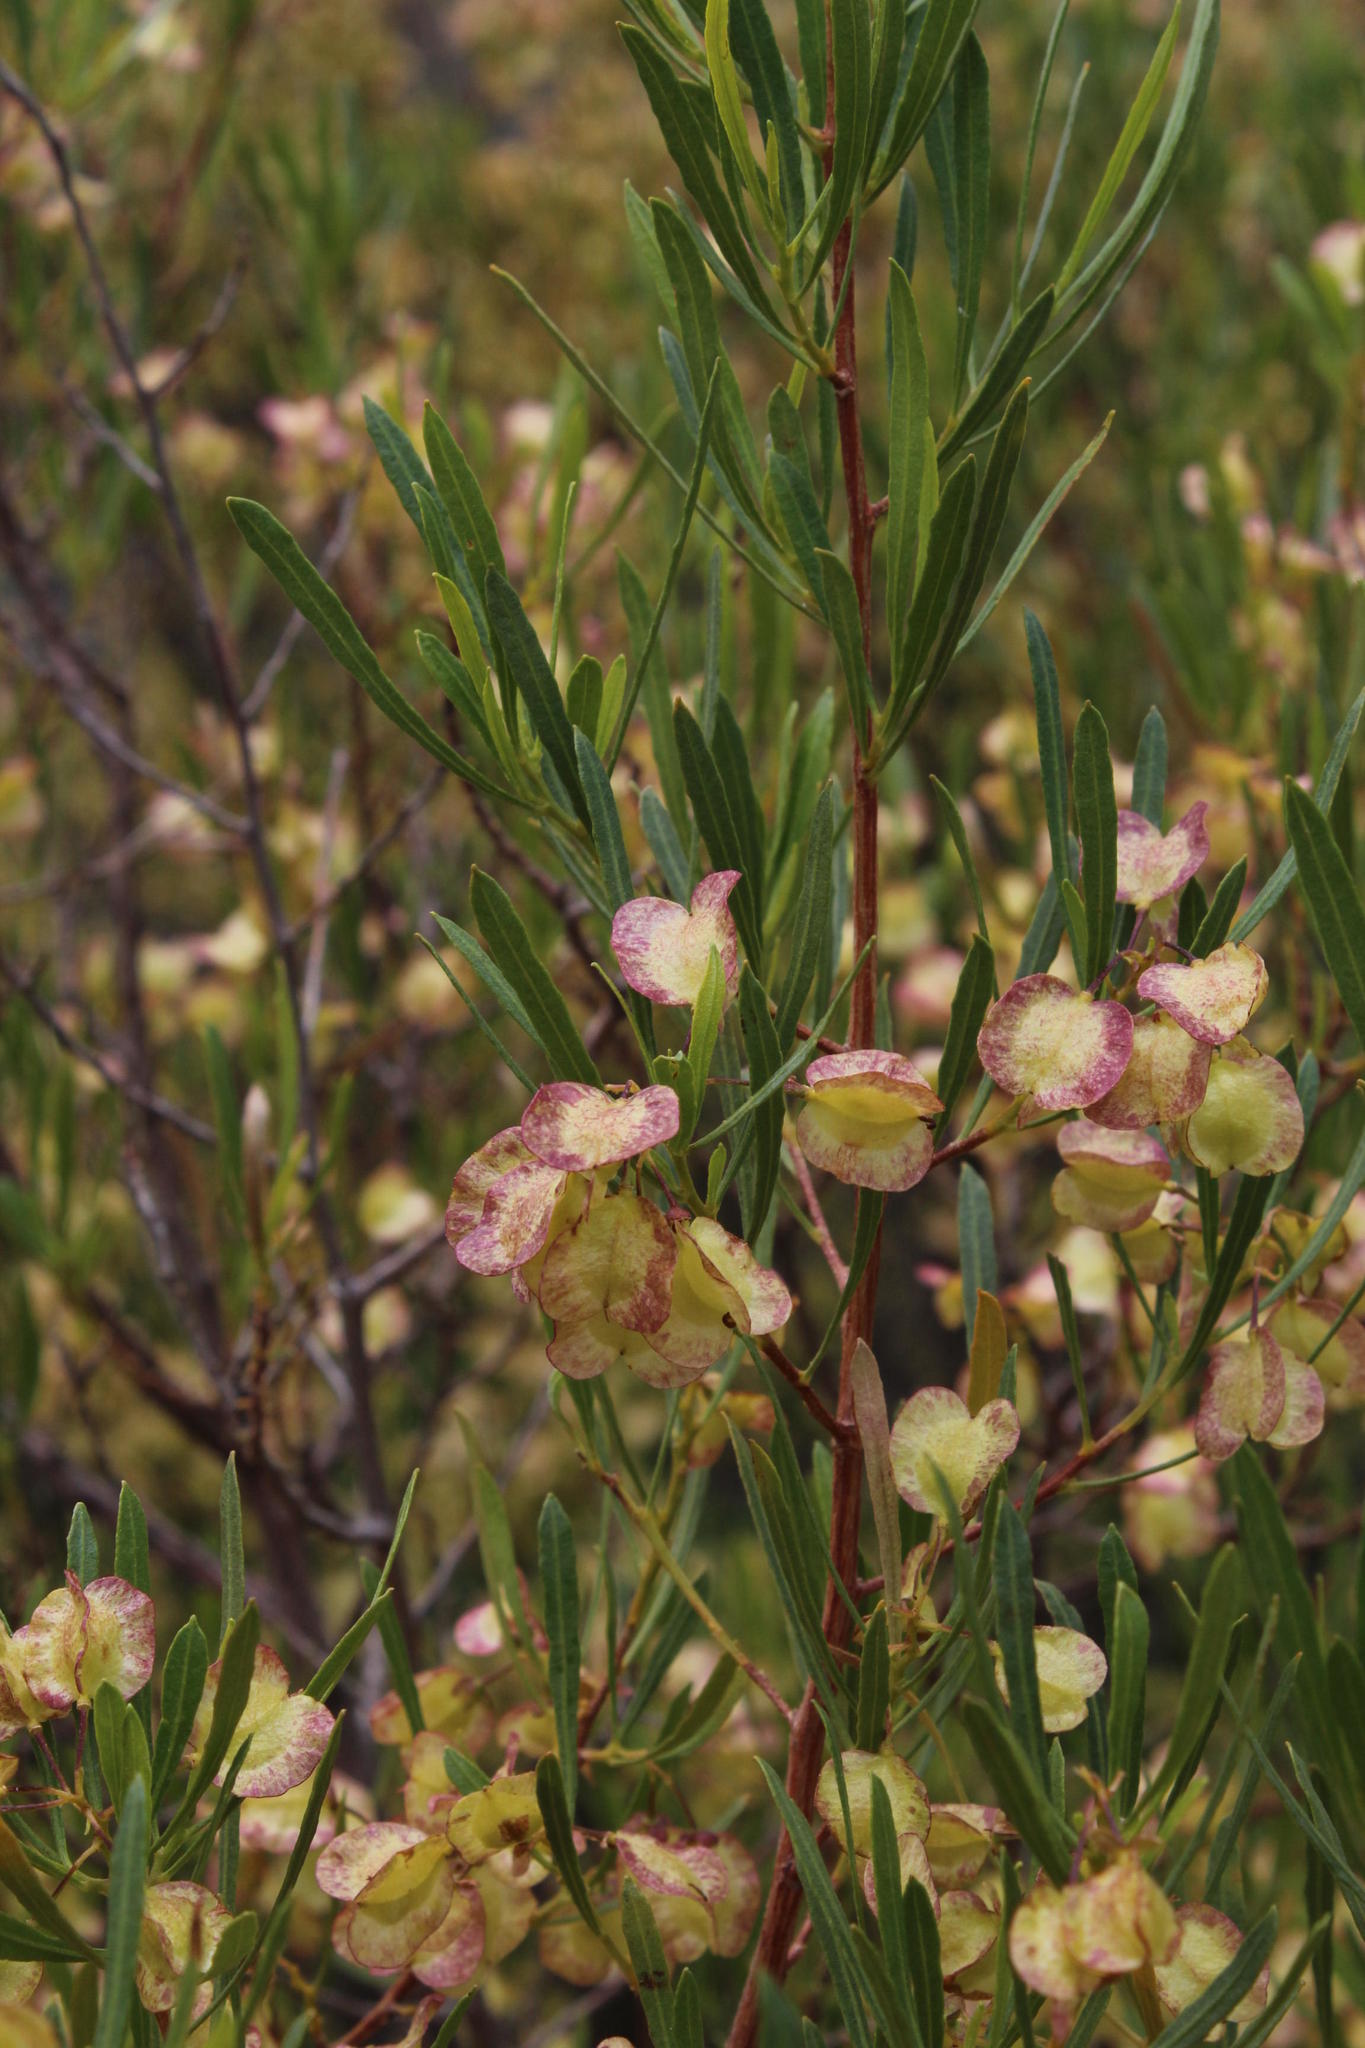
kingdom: Plantae
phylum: Tracheophyta
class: Magnoliopsida
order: Sapindales
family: Sapindaceae
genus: Dodonaea
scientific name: Dodonaea viscosa
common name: Hopbush
